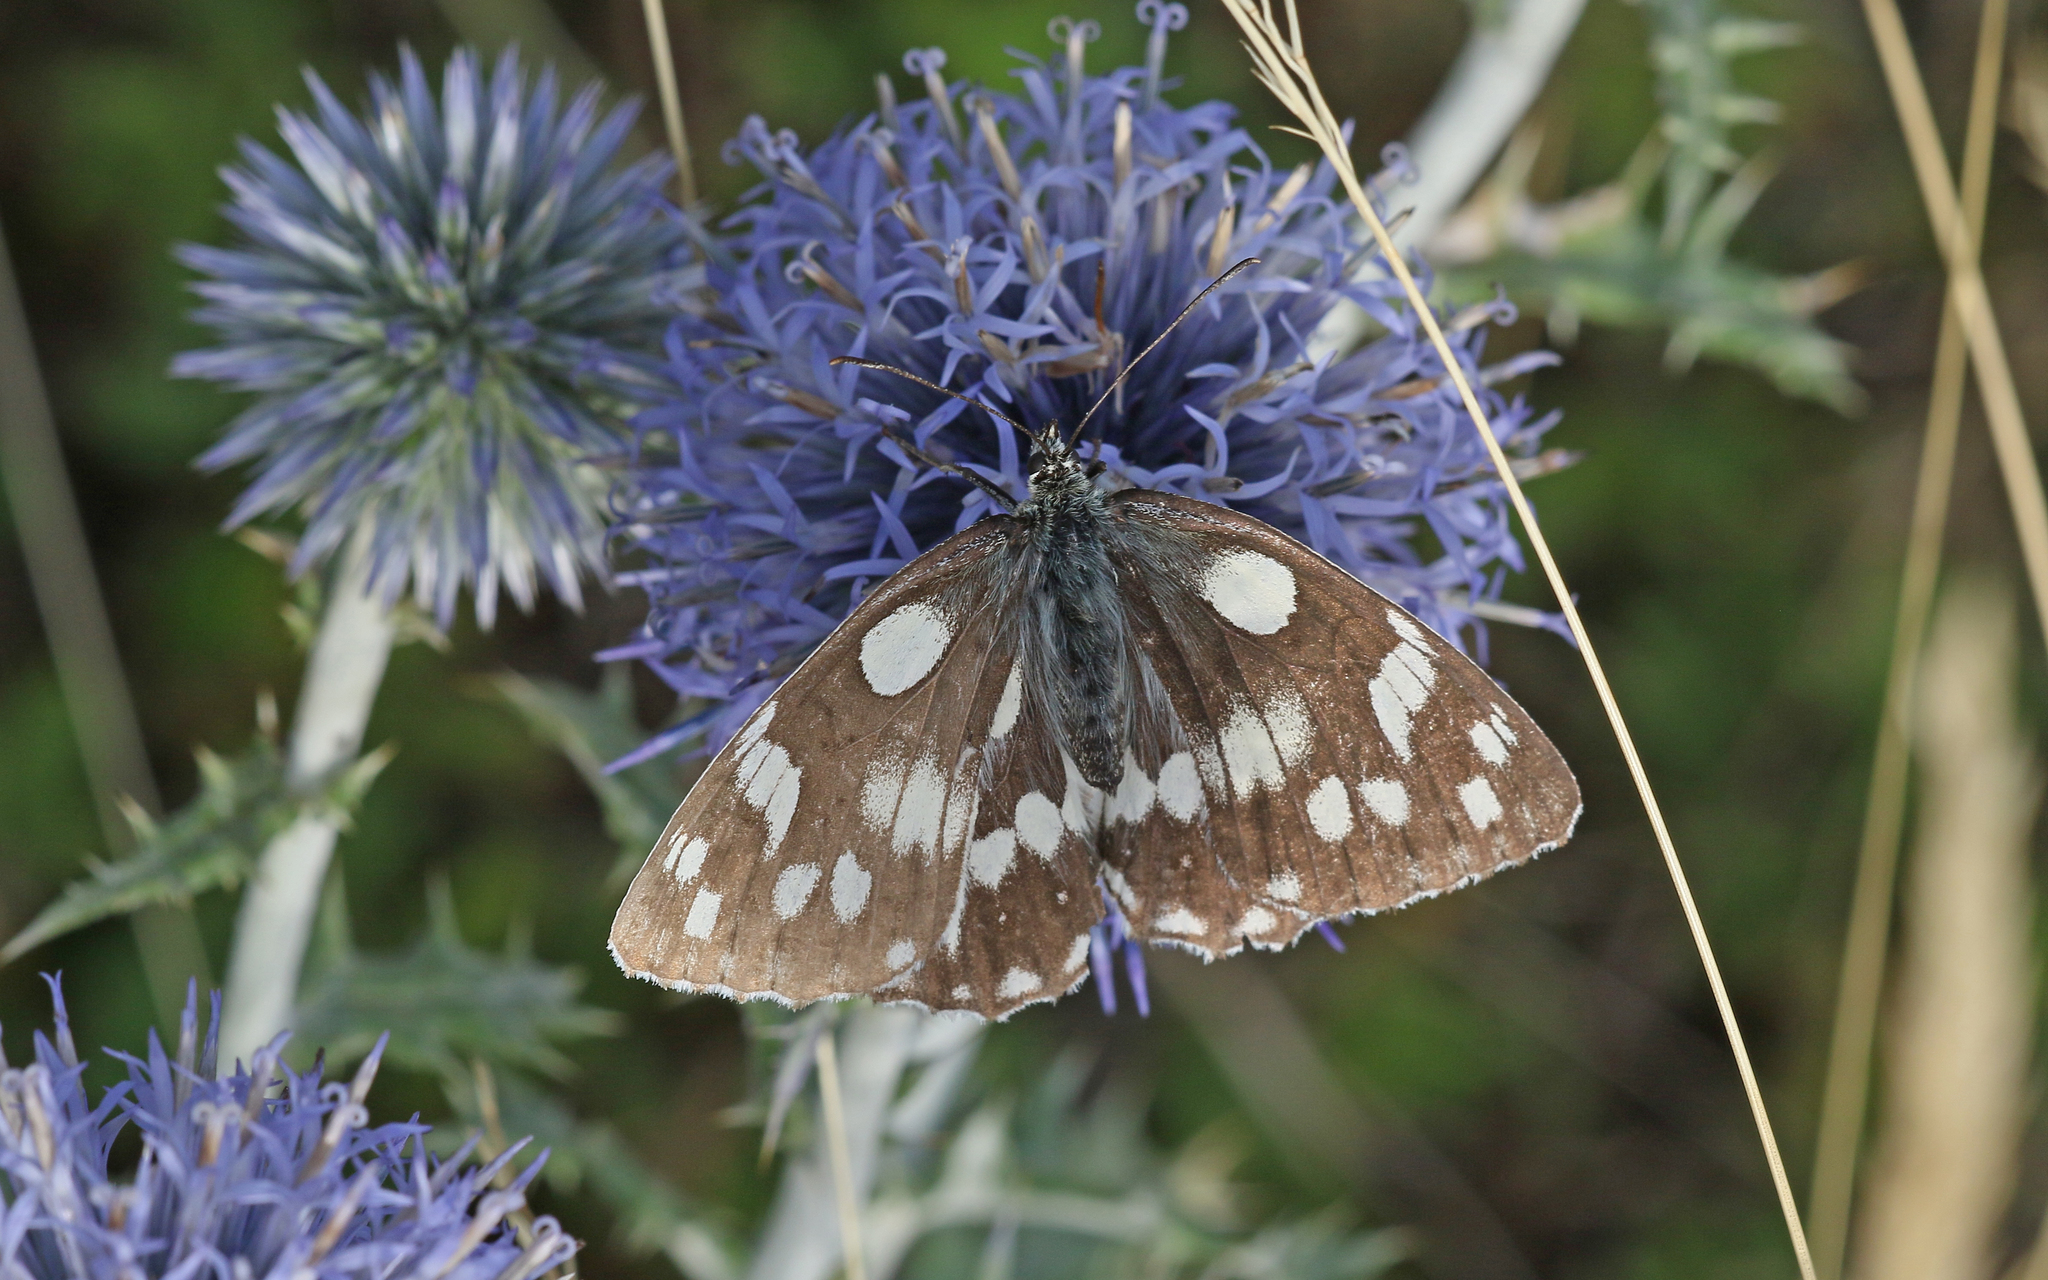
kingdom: Animalia
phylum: Arthropoda
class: Insecta
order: Lepidoptera
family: Nymphalidae
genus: Melanargia
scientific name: Melanargia galathea
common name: Marbled white
